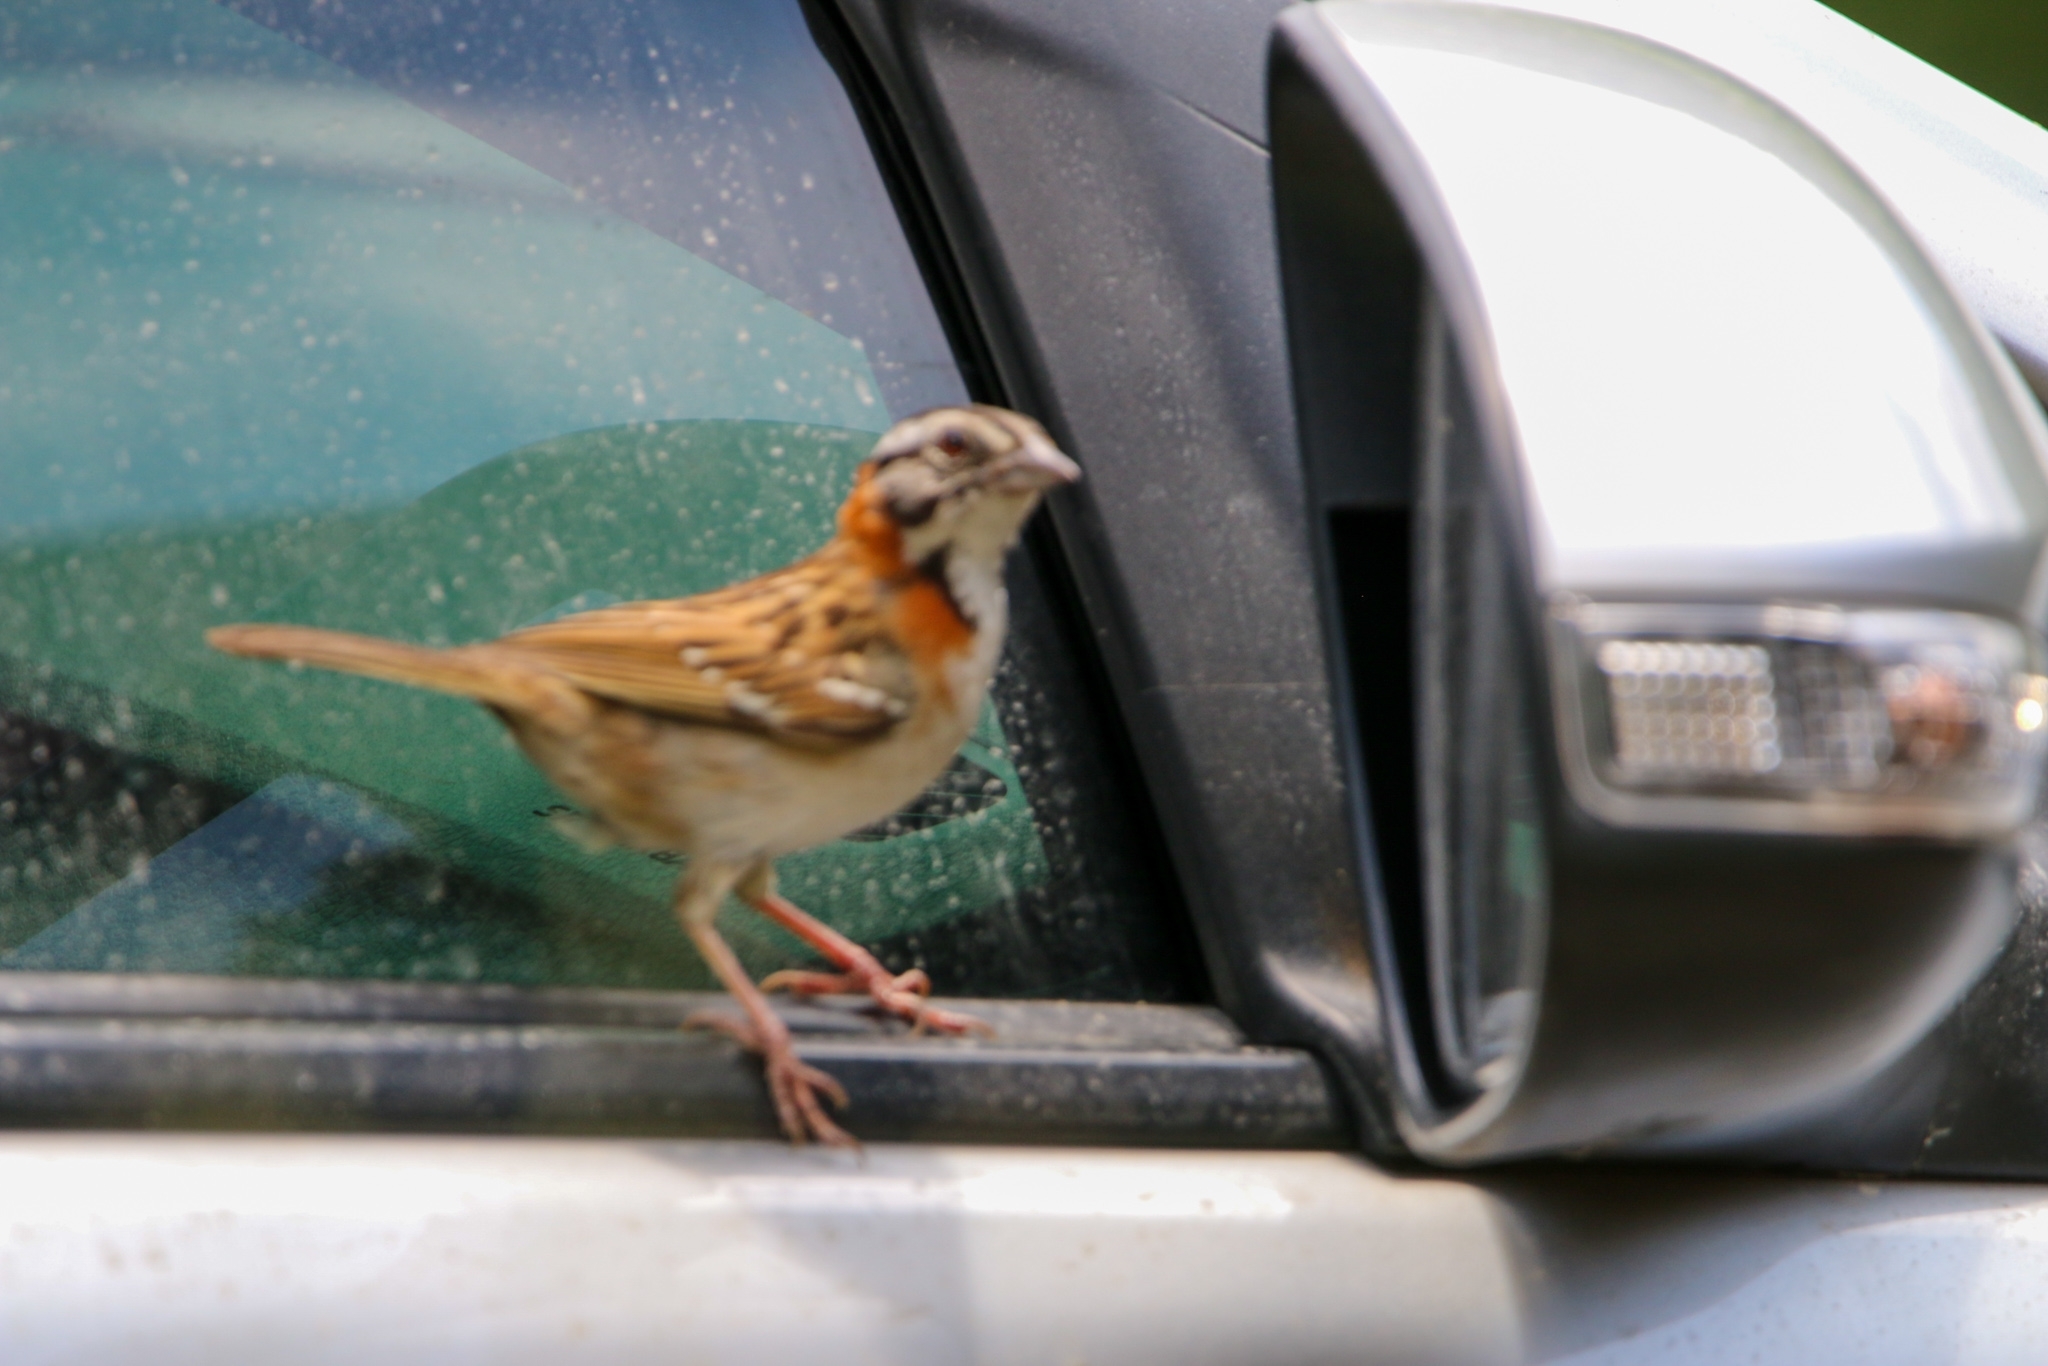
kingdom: Animalia
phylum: Chordata
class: Aves
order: Passeriformes
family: Passerellidae
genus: Zonotrichia
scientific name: Zonotrichia capensis
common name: Rufous-collared sparrow
